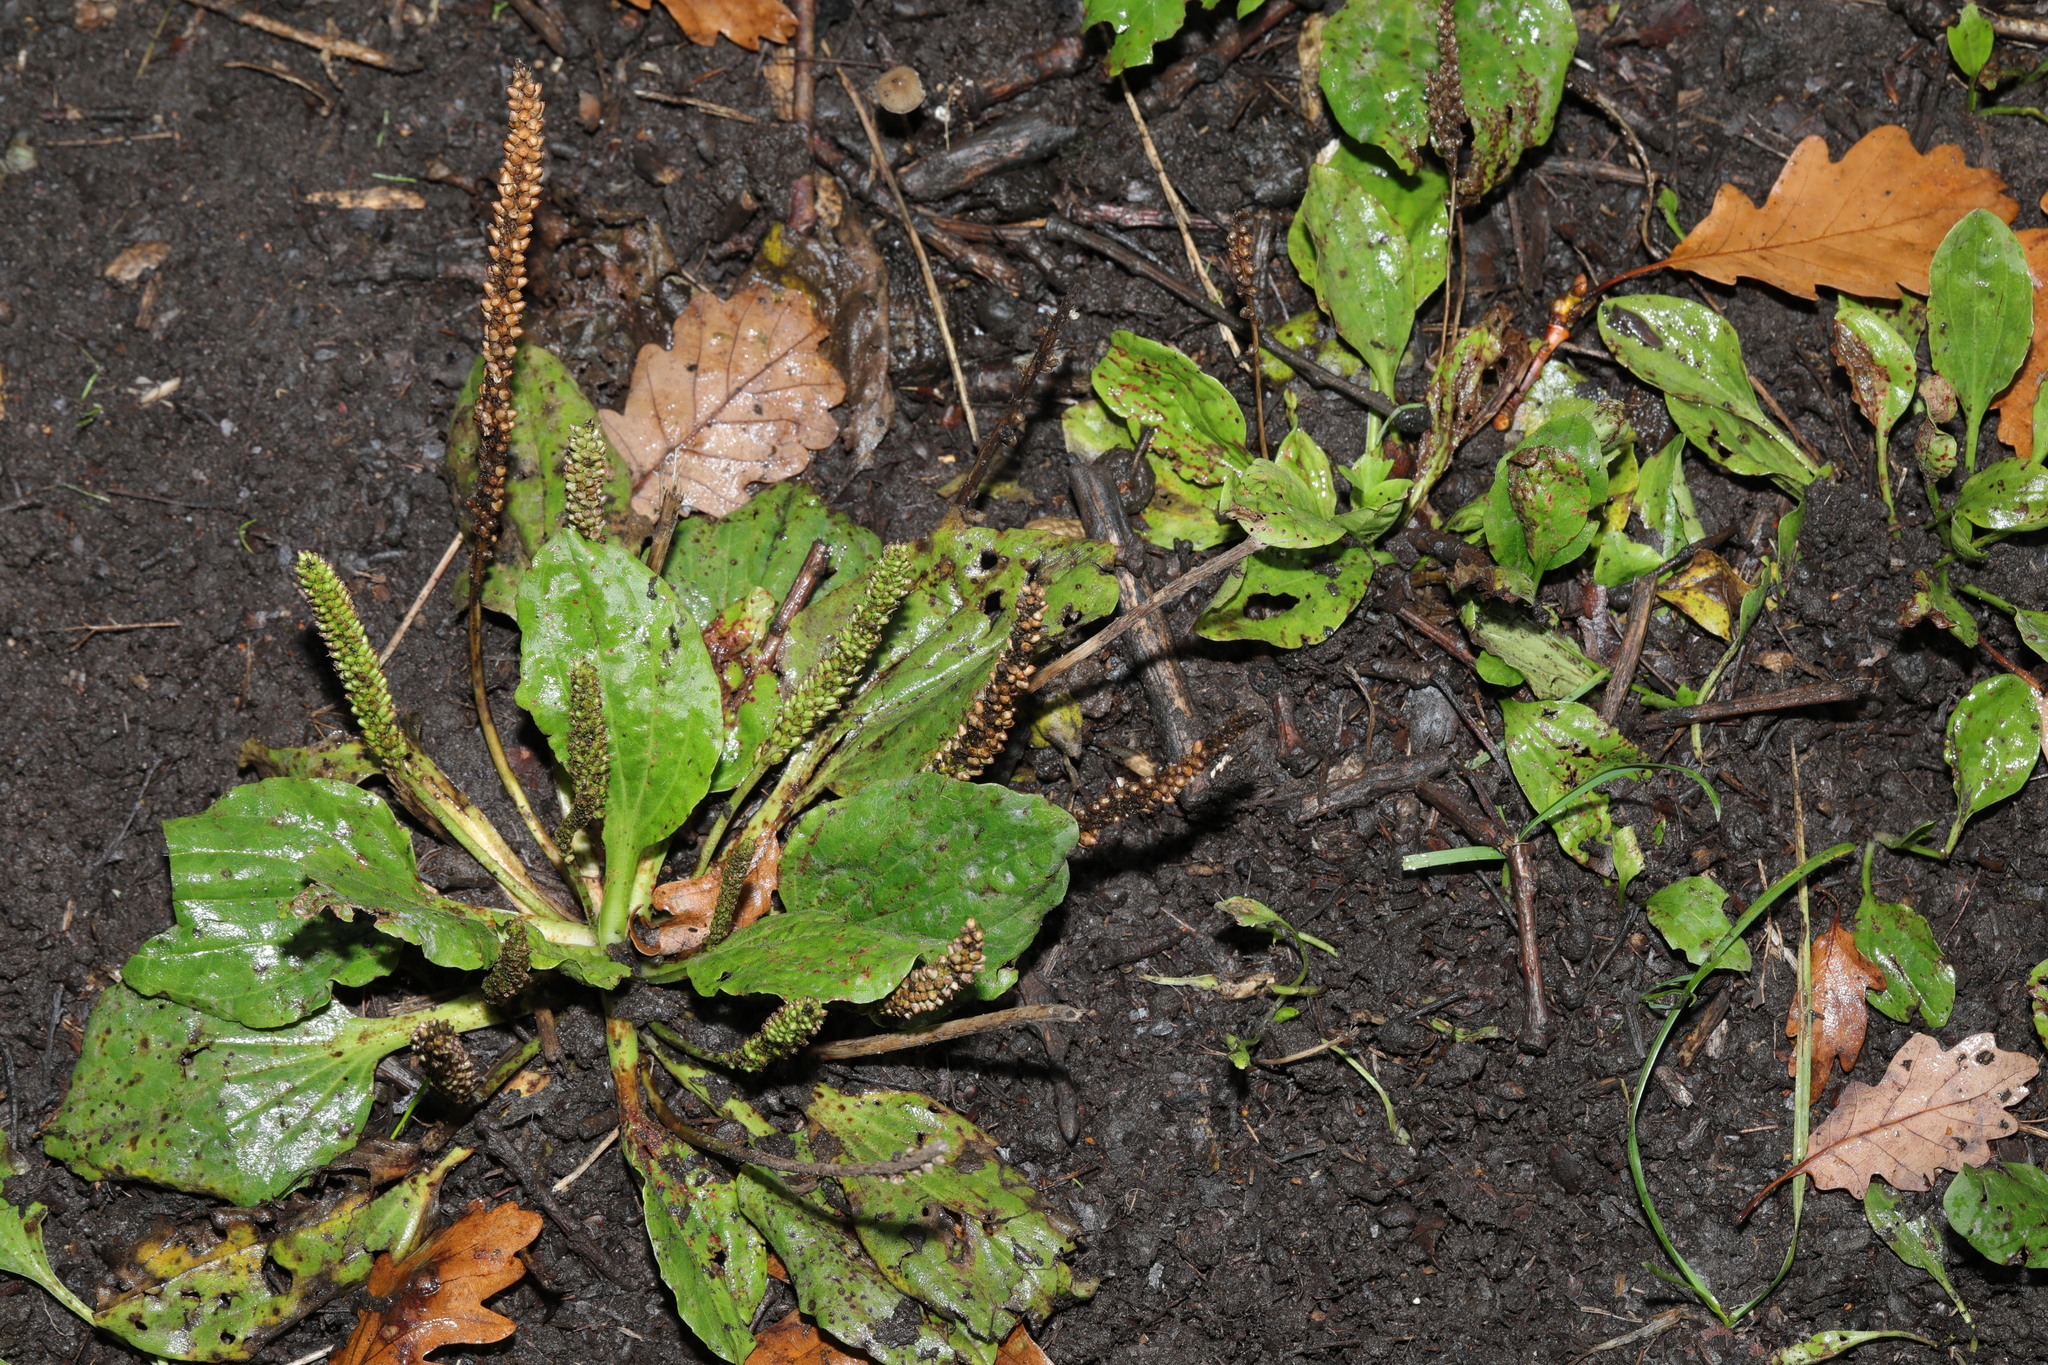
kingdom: Plantae
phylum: Tracheophyta
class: Magnoliopsida
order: Lamiales
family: Plantaginaceae
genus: Plantago
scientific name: Plantago major
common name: Common plantain
